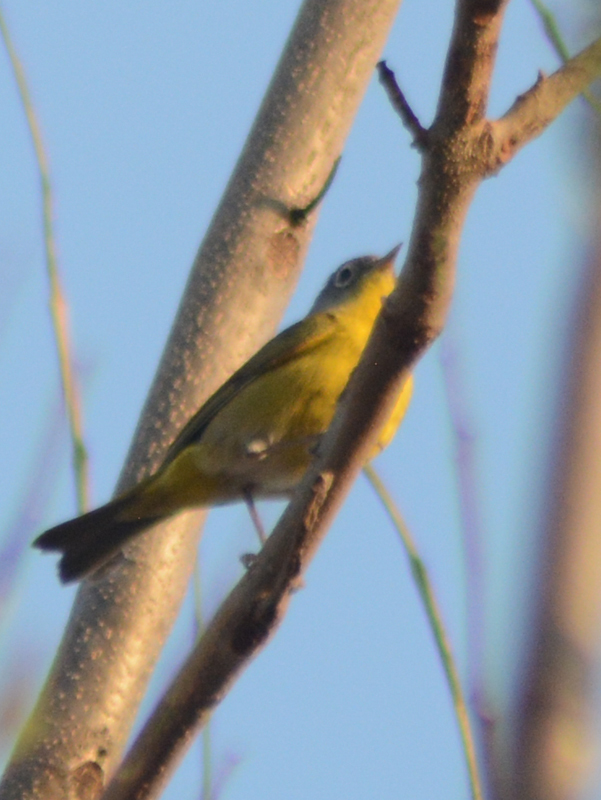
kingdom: Animalia
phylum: Chordata
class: Aves
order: Passeriformes
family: Parulidae
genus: Leiothlypis
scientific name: Leiothlypis ruficapilla
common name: Nashville warbler
